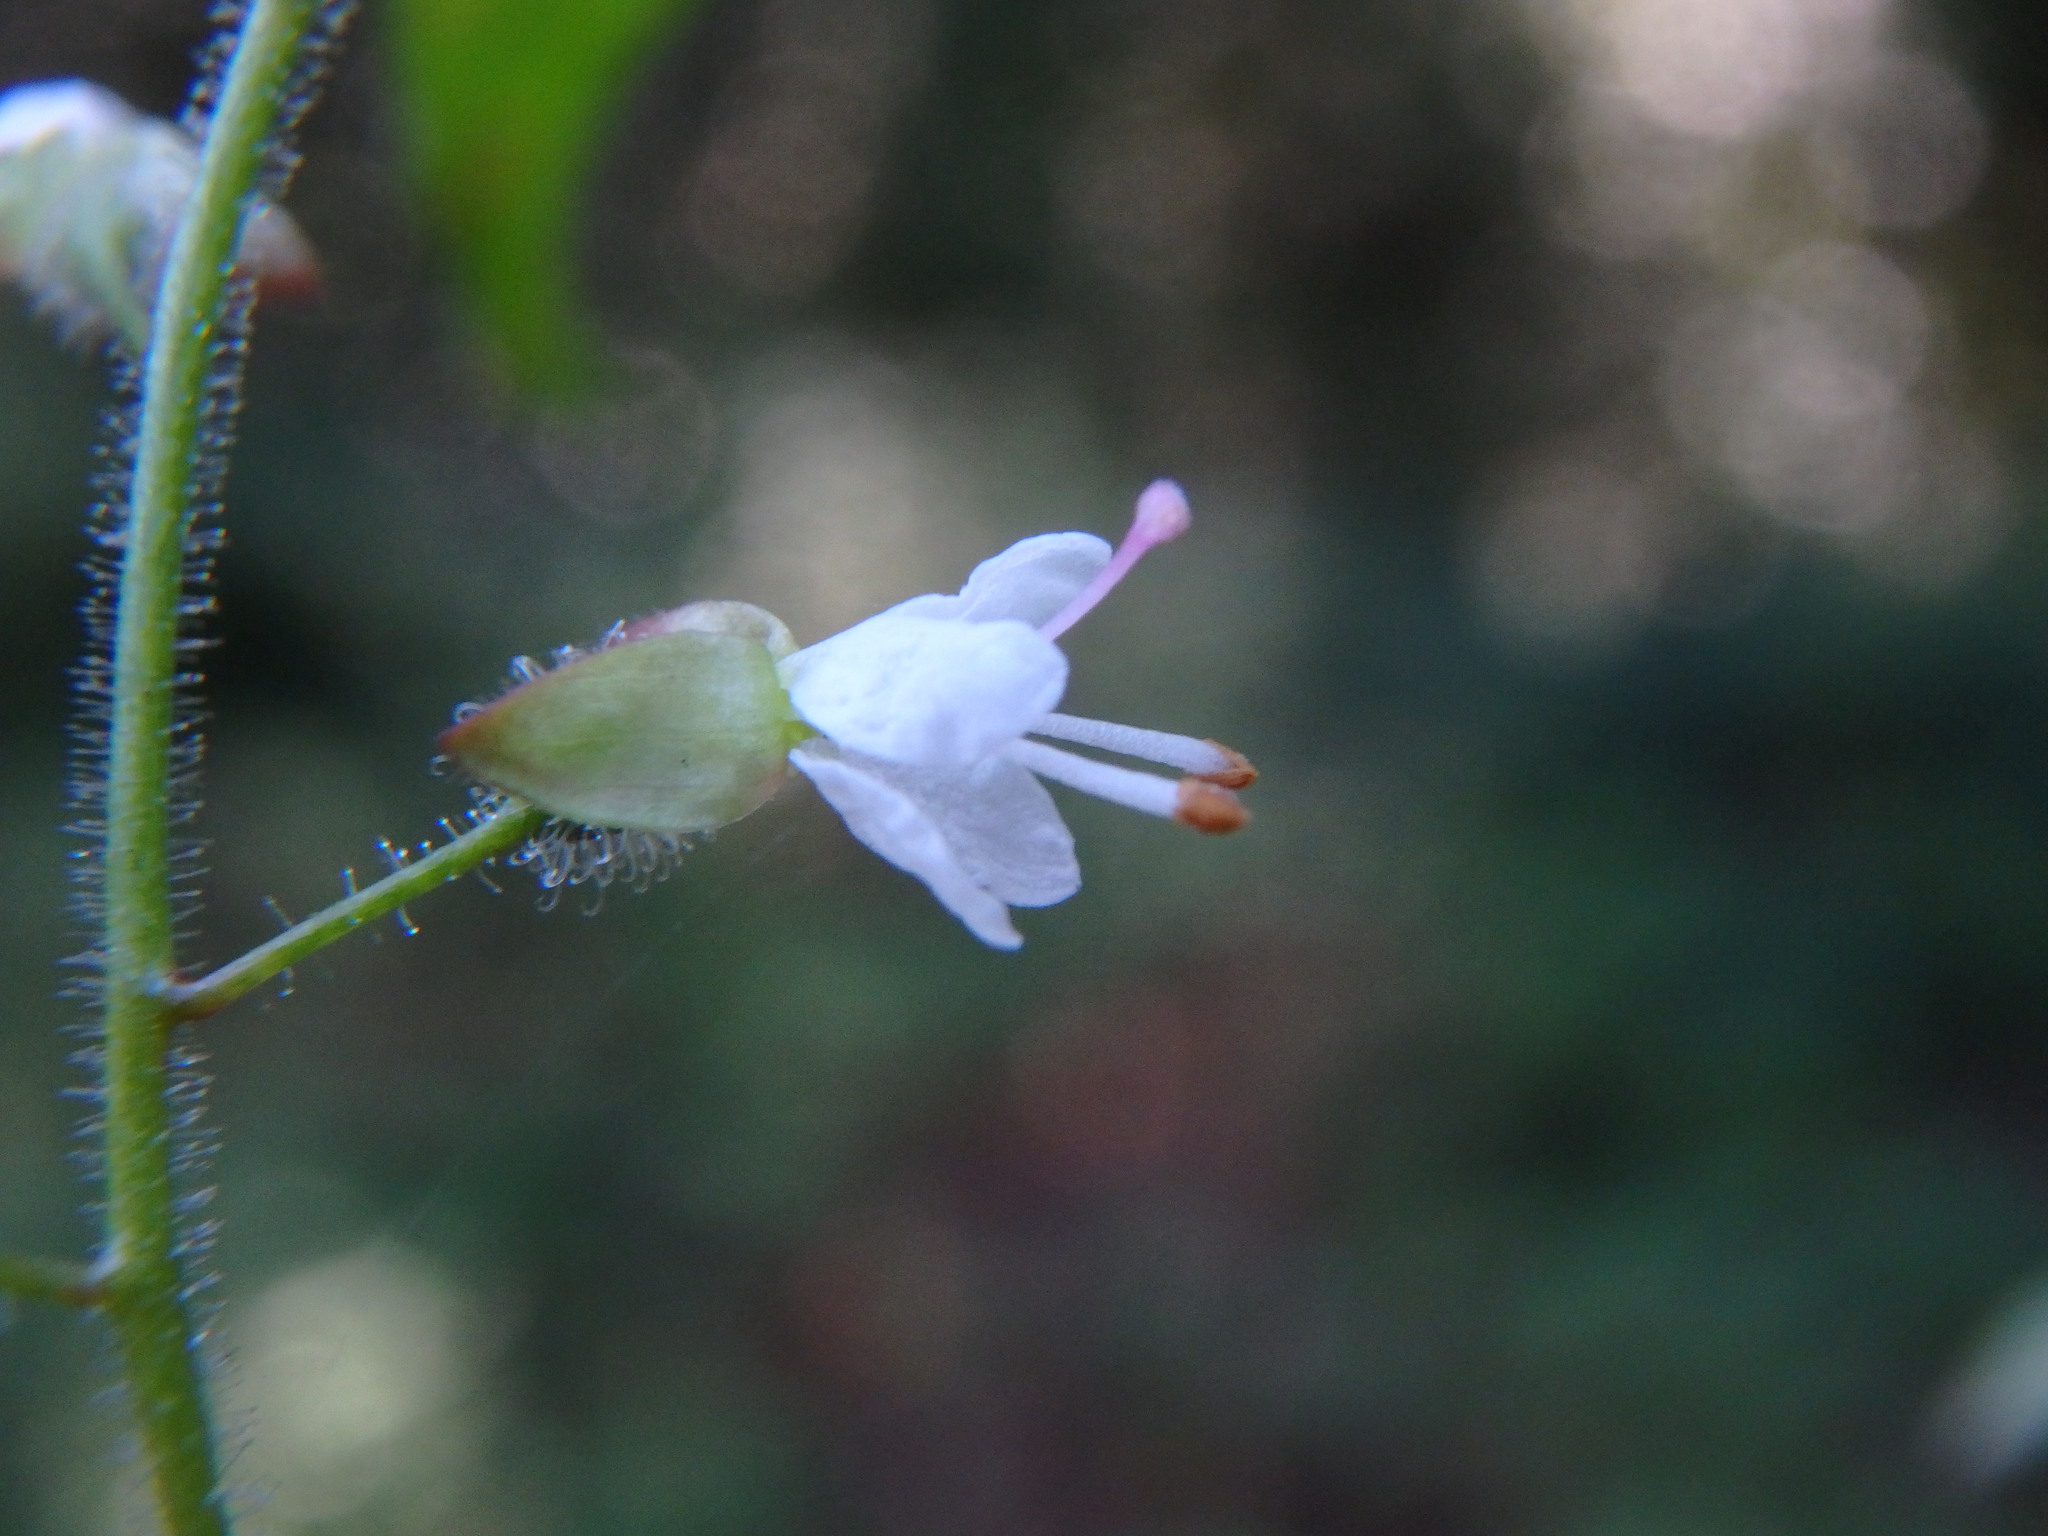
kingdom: Plantae
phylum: Tracheophyta
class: Magnoliopsida
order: Myrtales
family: Onagraceae
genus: Circaea
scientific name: Circaea lutetiana
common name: Enchanter's-nightshade
